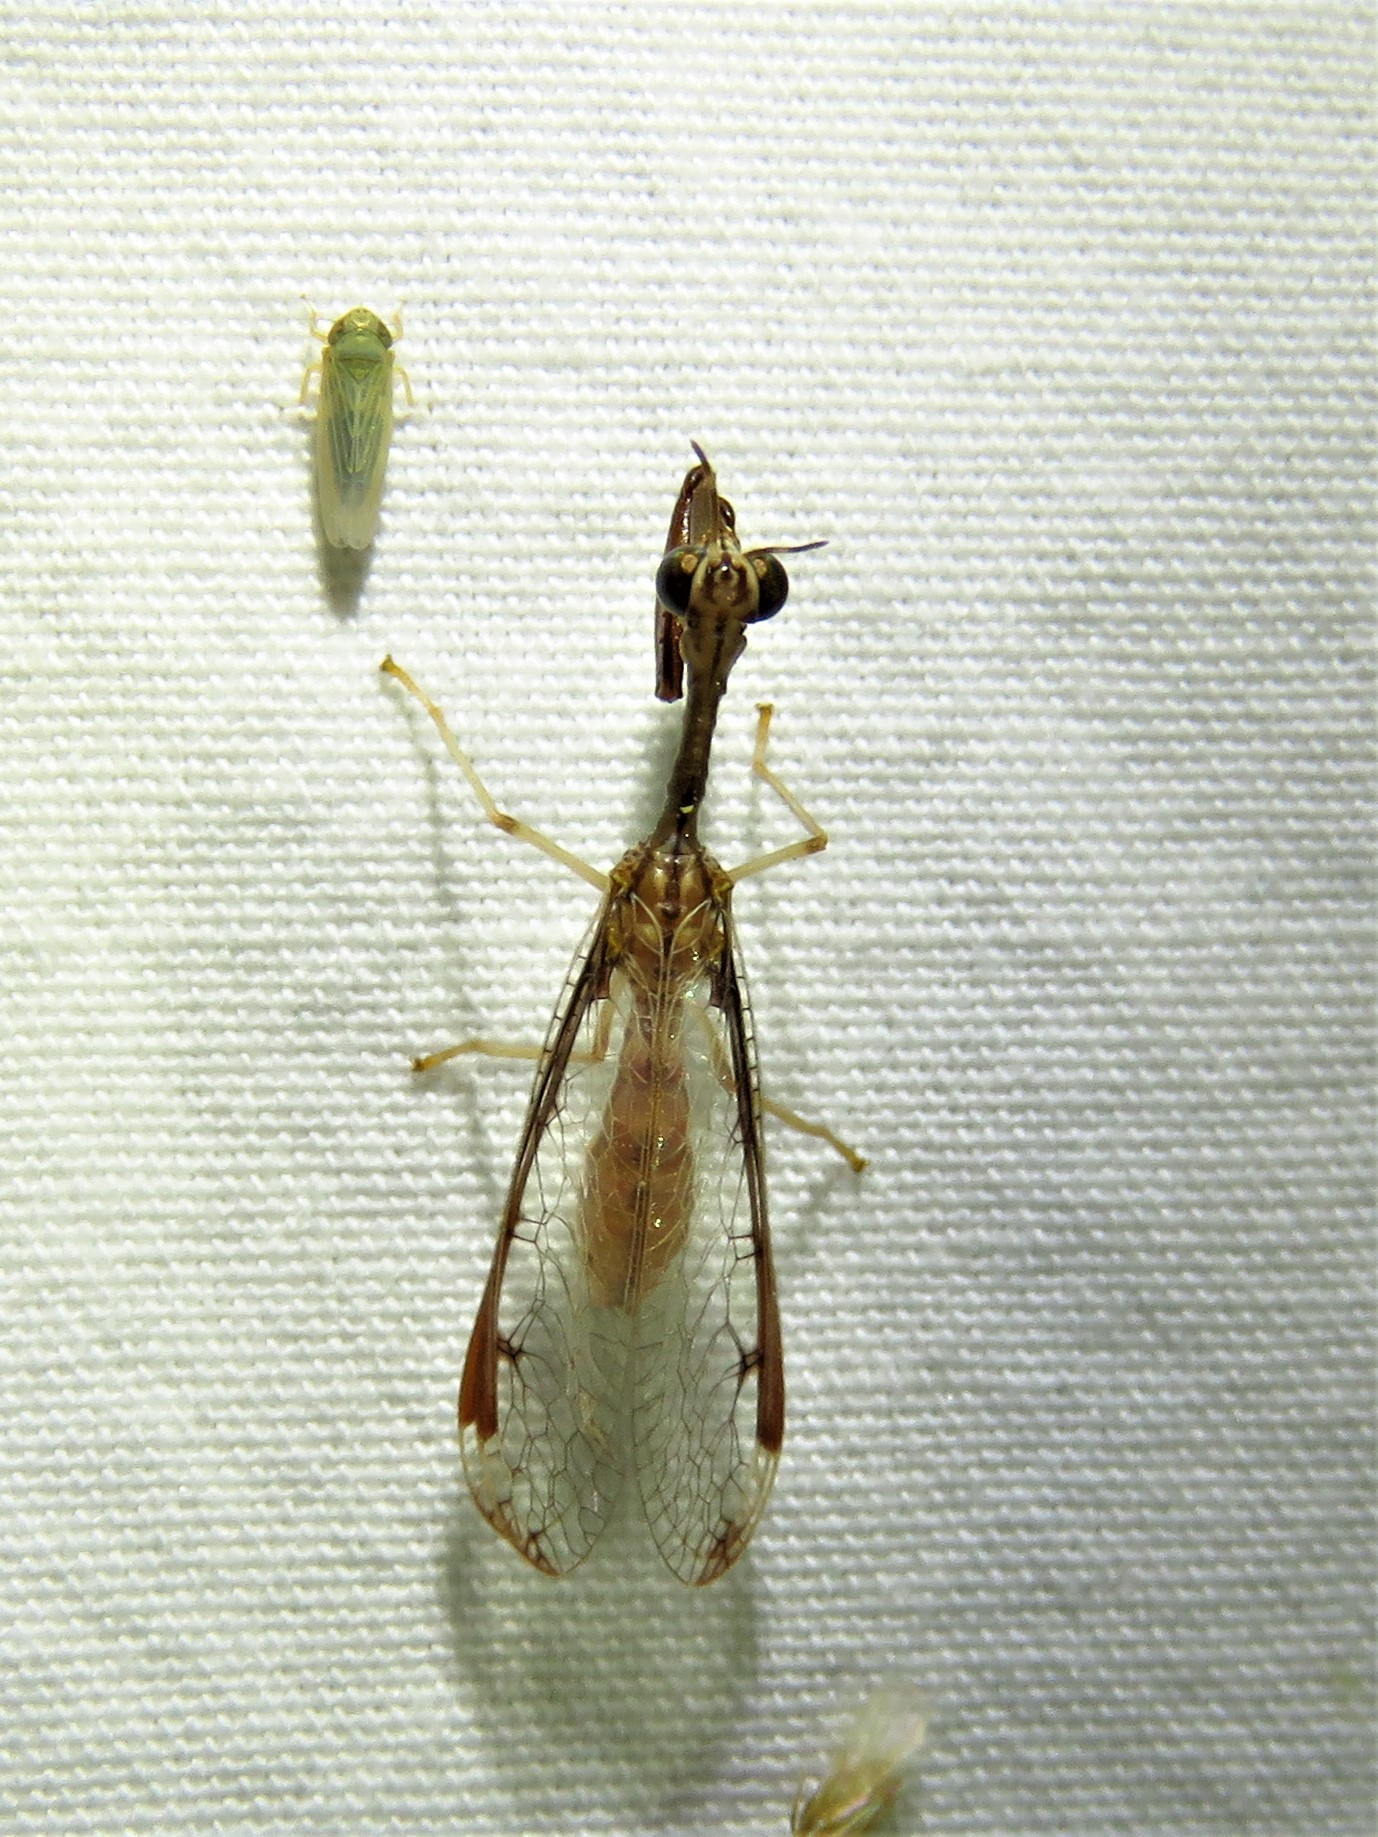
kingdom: Animalia
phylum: Arthropoda
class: Insecta
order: Neuroptera
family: Mantispidae
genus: Dicromantispa
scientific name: Dicromantispa interrupta
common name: Four-spotted mantidfly
